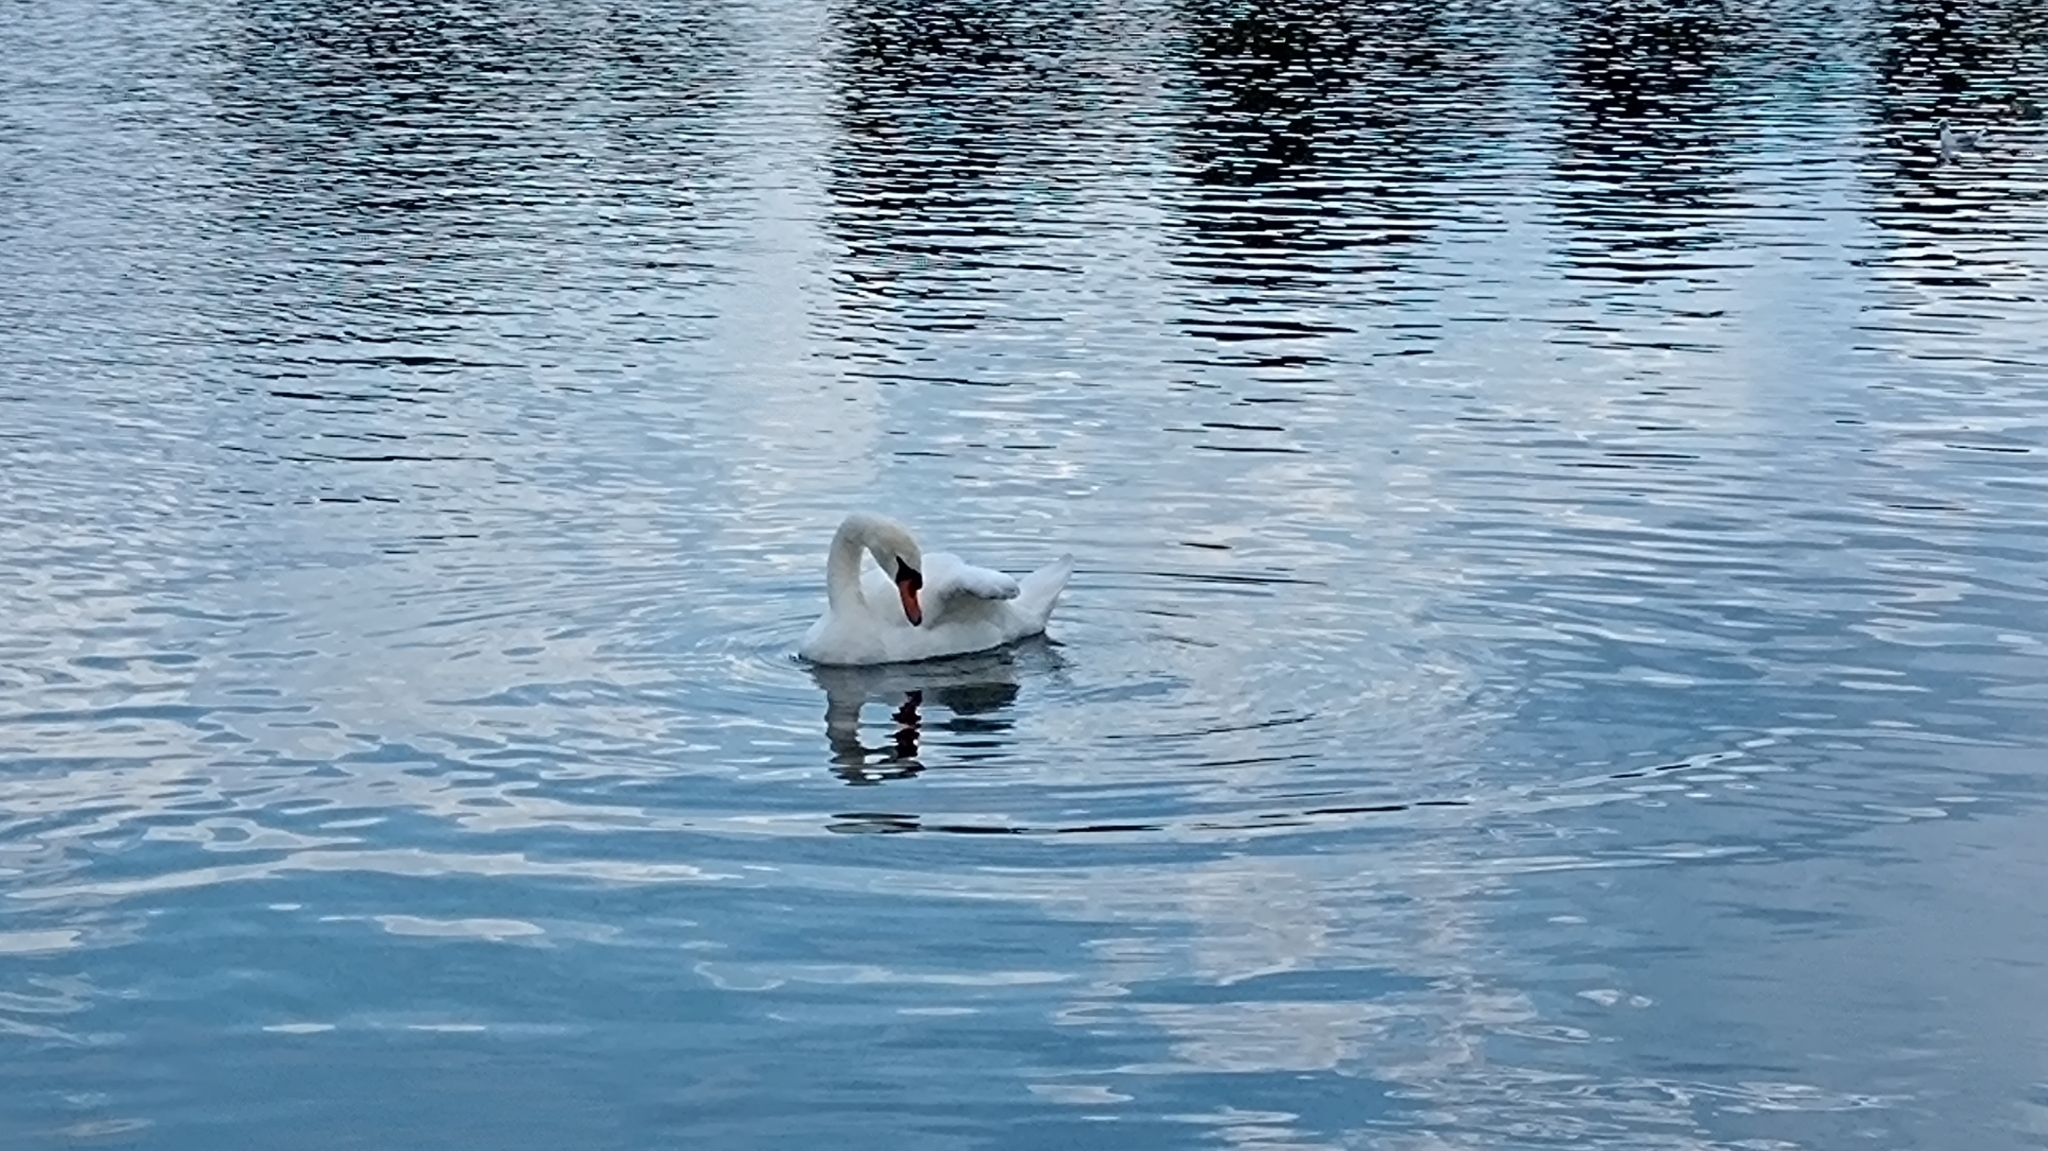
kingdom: Animalia
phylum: Chordata
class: Aves
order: Anseriformes
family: Anatidae
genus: Cygnus
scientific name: Cygnus olor
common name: Mute swan
